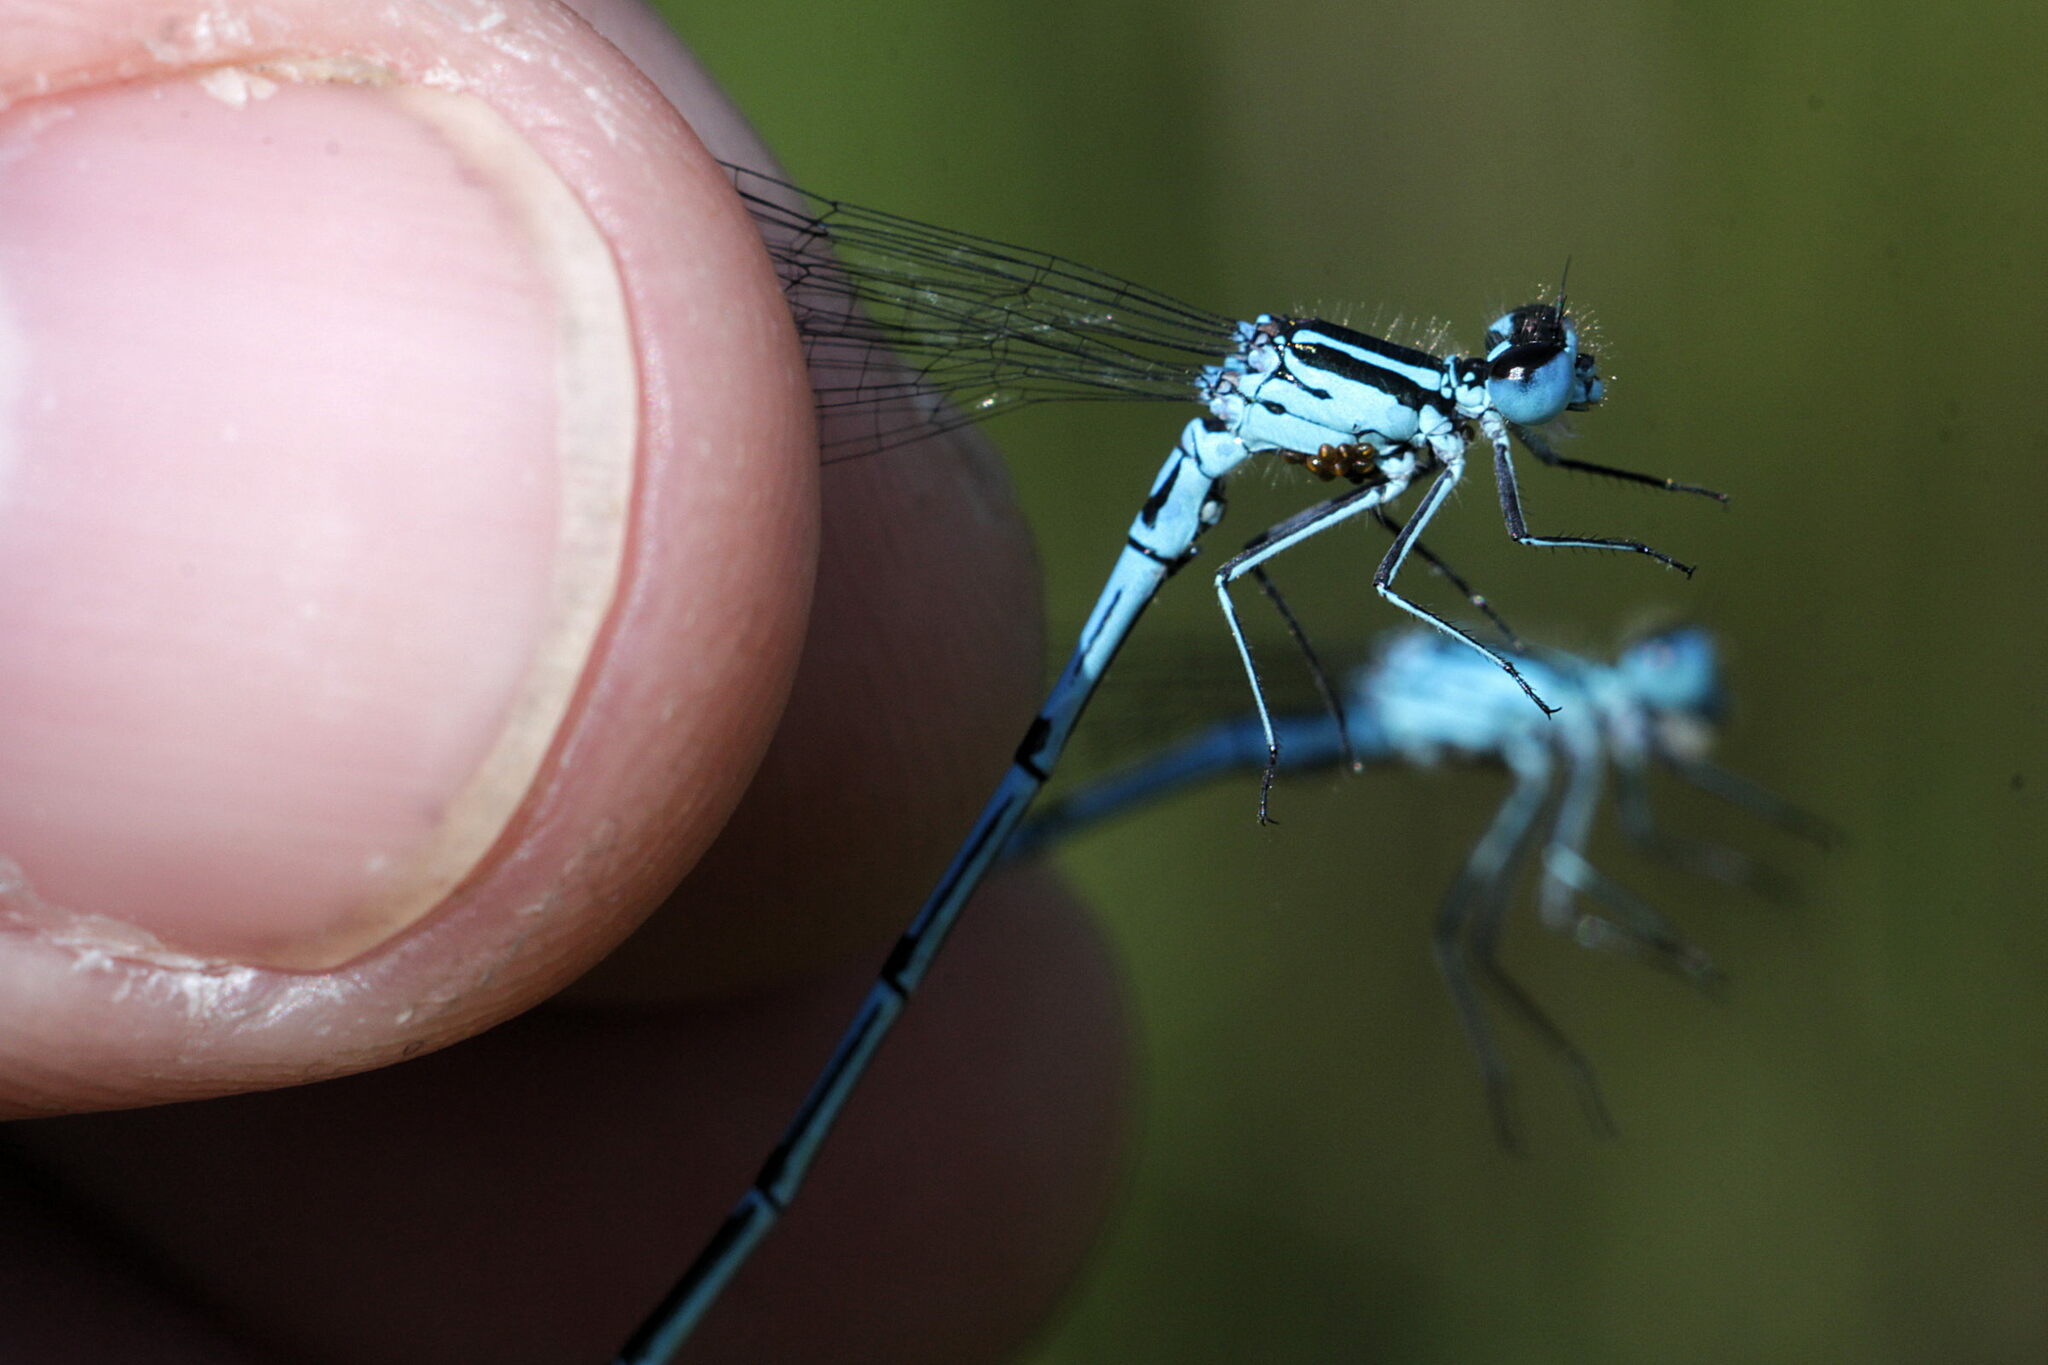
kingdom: Animalia
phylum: Arthropoda
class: Insecta
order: Odonata
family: Coenagrionidae
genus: Coenagrion
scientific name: Coenagrion puella
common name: Azure damselfly
